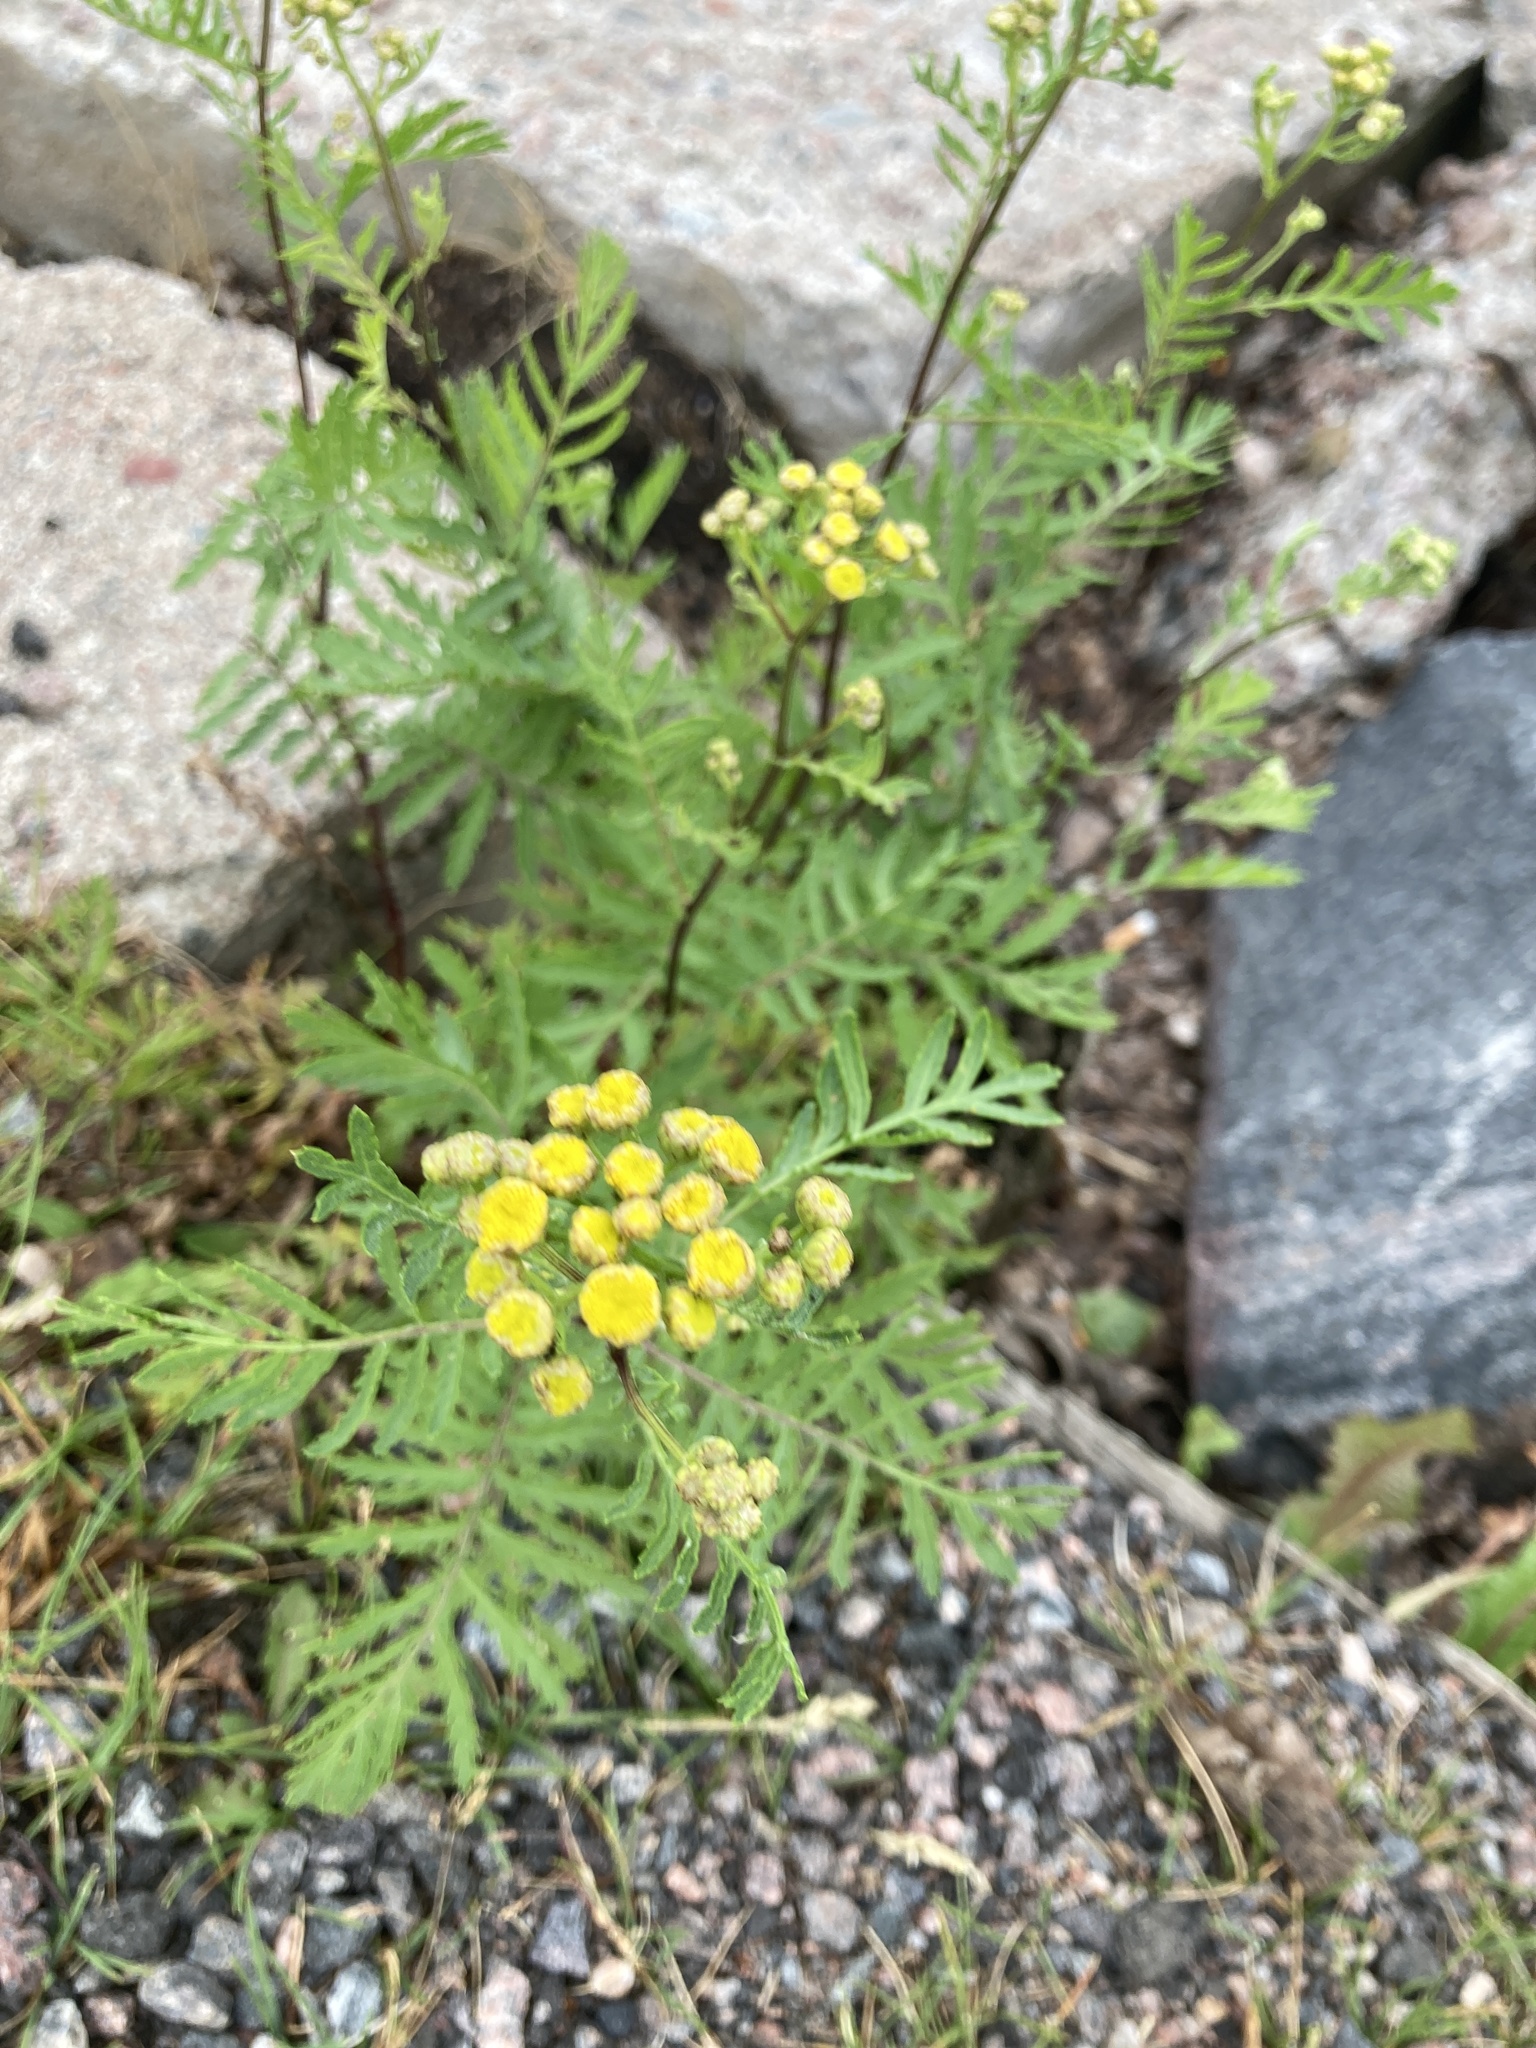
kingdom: Plantae
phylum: Tracheophyta
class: Magnoliopsida
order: Asterales
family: Asteraceae
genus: Tanacetum
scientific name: Tanacetum vulgare
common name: Common tansy
